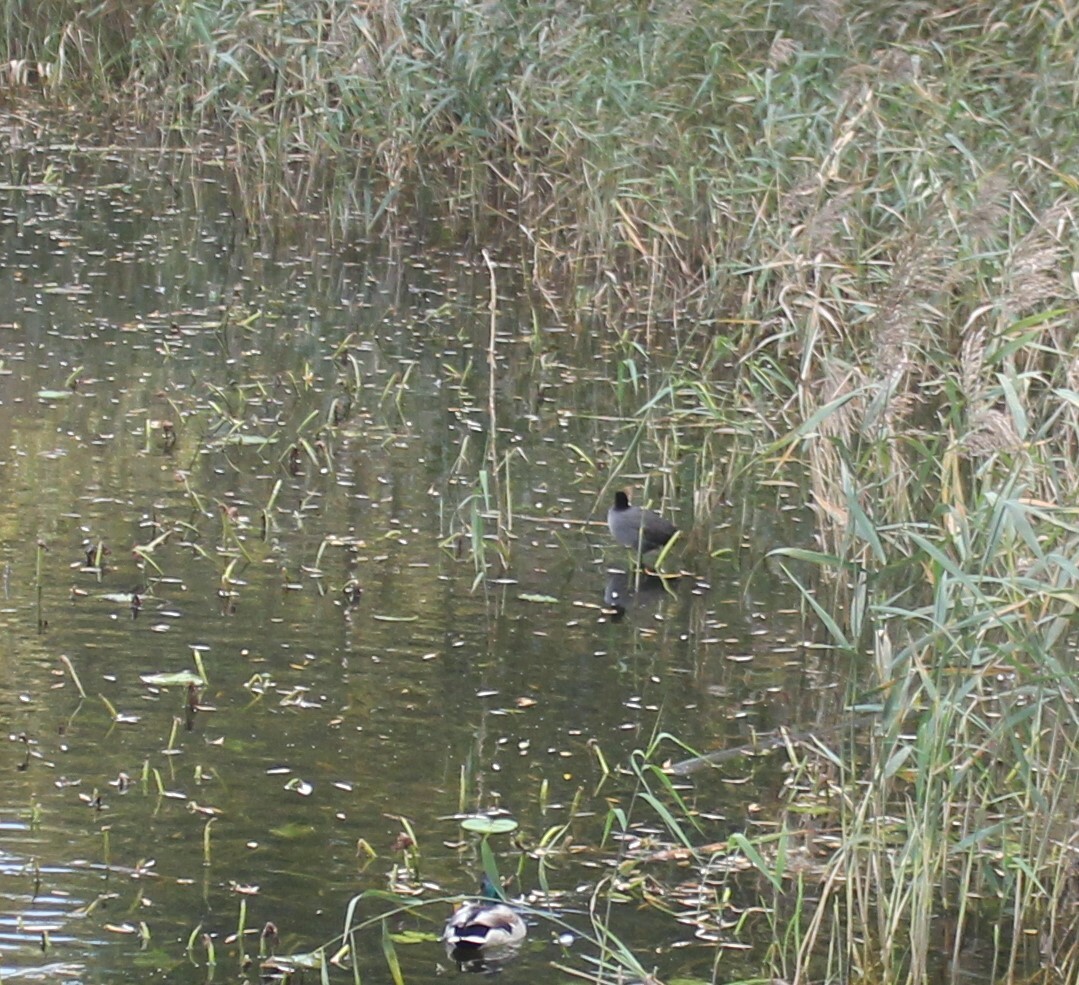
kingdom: Animalia
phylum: Chordata
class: Aves
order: Gruiformes
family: Rallidae
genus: Fulica
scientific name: Fulica atra
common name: Eurasian coot
